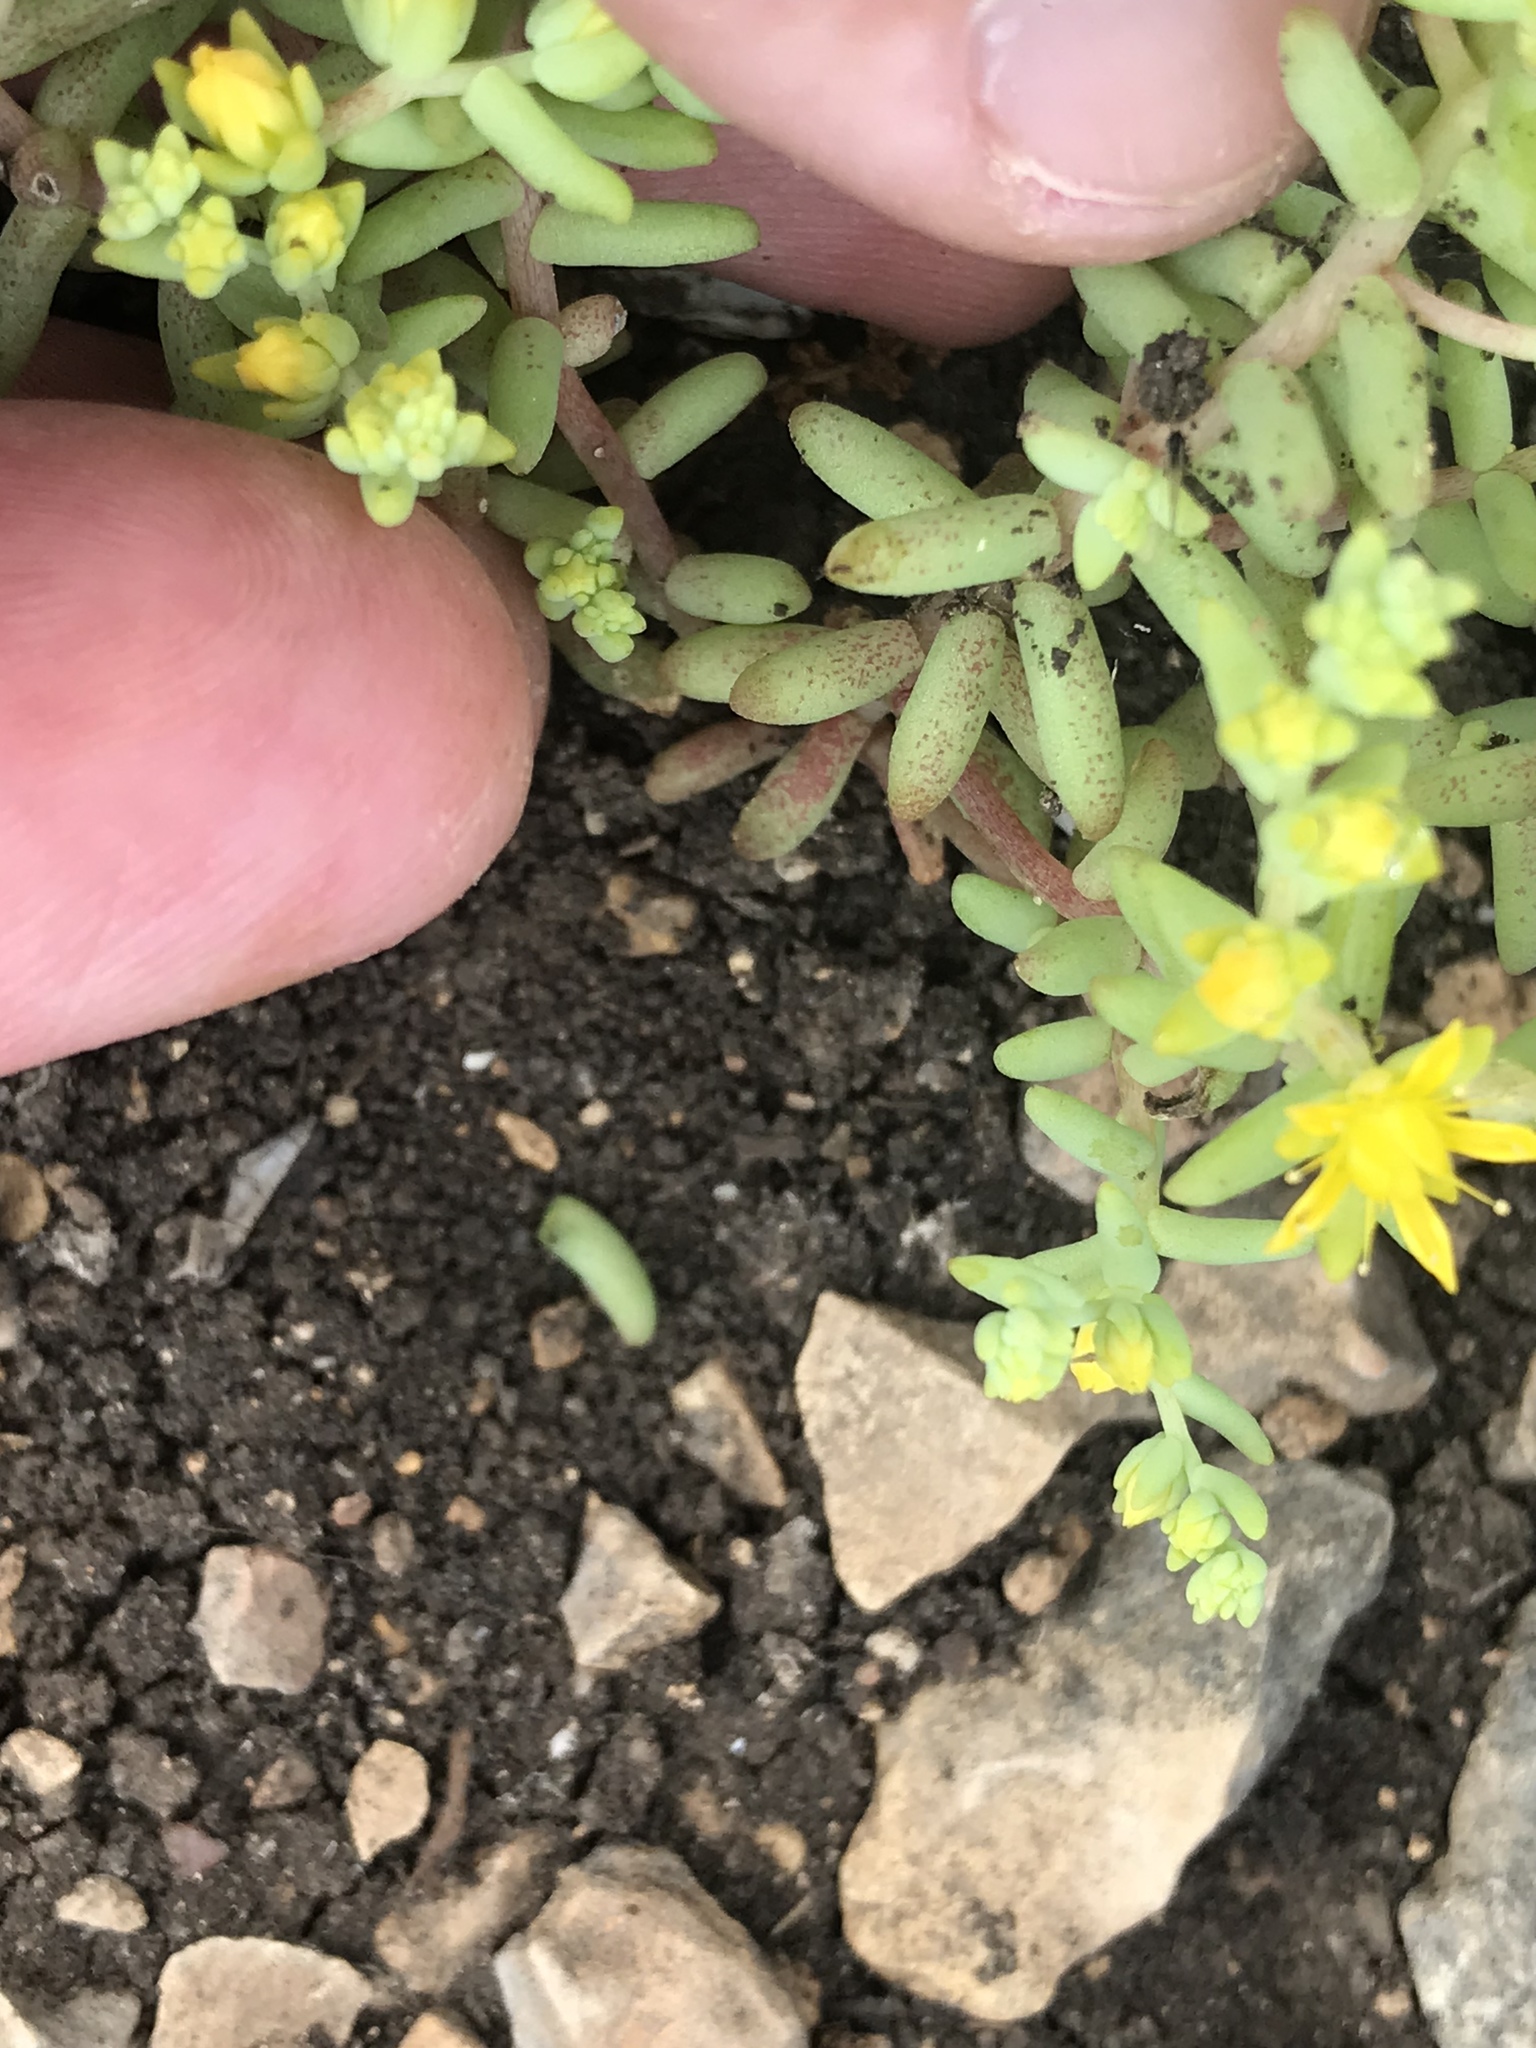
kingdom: Plantae
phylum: Tracheophyta
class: Magnoliopsida
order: Saxifragales
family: Crassulaceae
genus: Sedum
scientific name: Sedum nuttallii
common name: Yellow stonecrop
